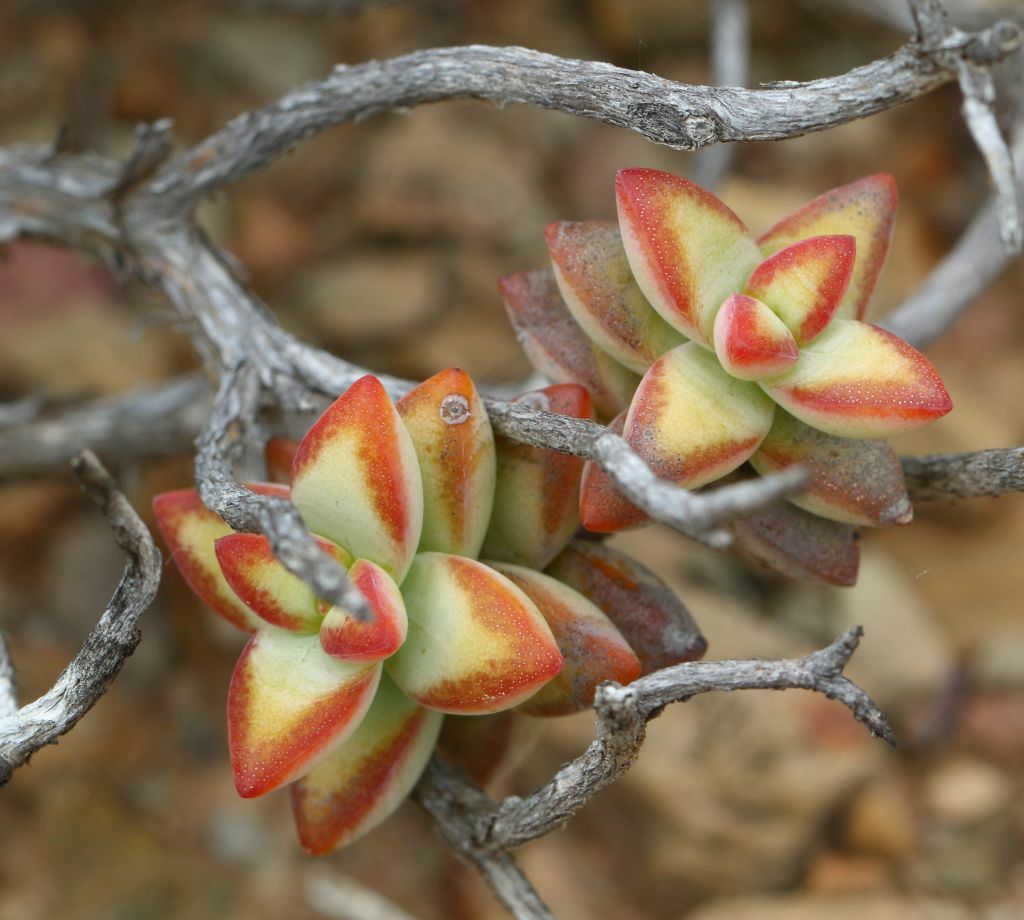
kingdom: Plantae
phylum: Tracheophyta
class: Magnoliopsida
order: Saxifragales
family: Crassulaceae
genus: Crassula
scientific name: Crassula rupestris
